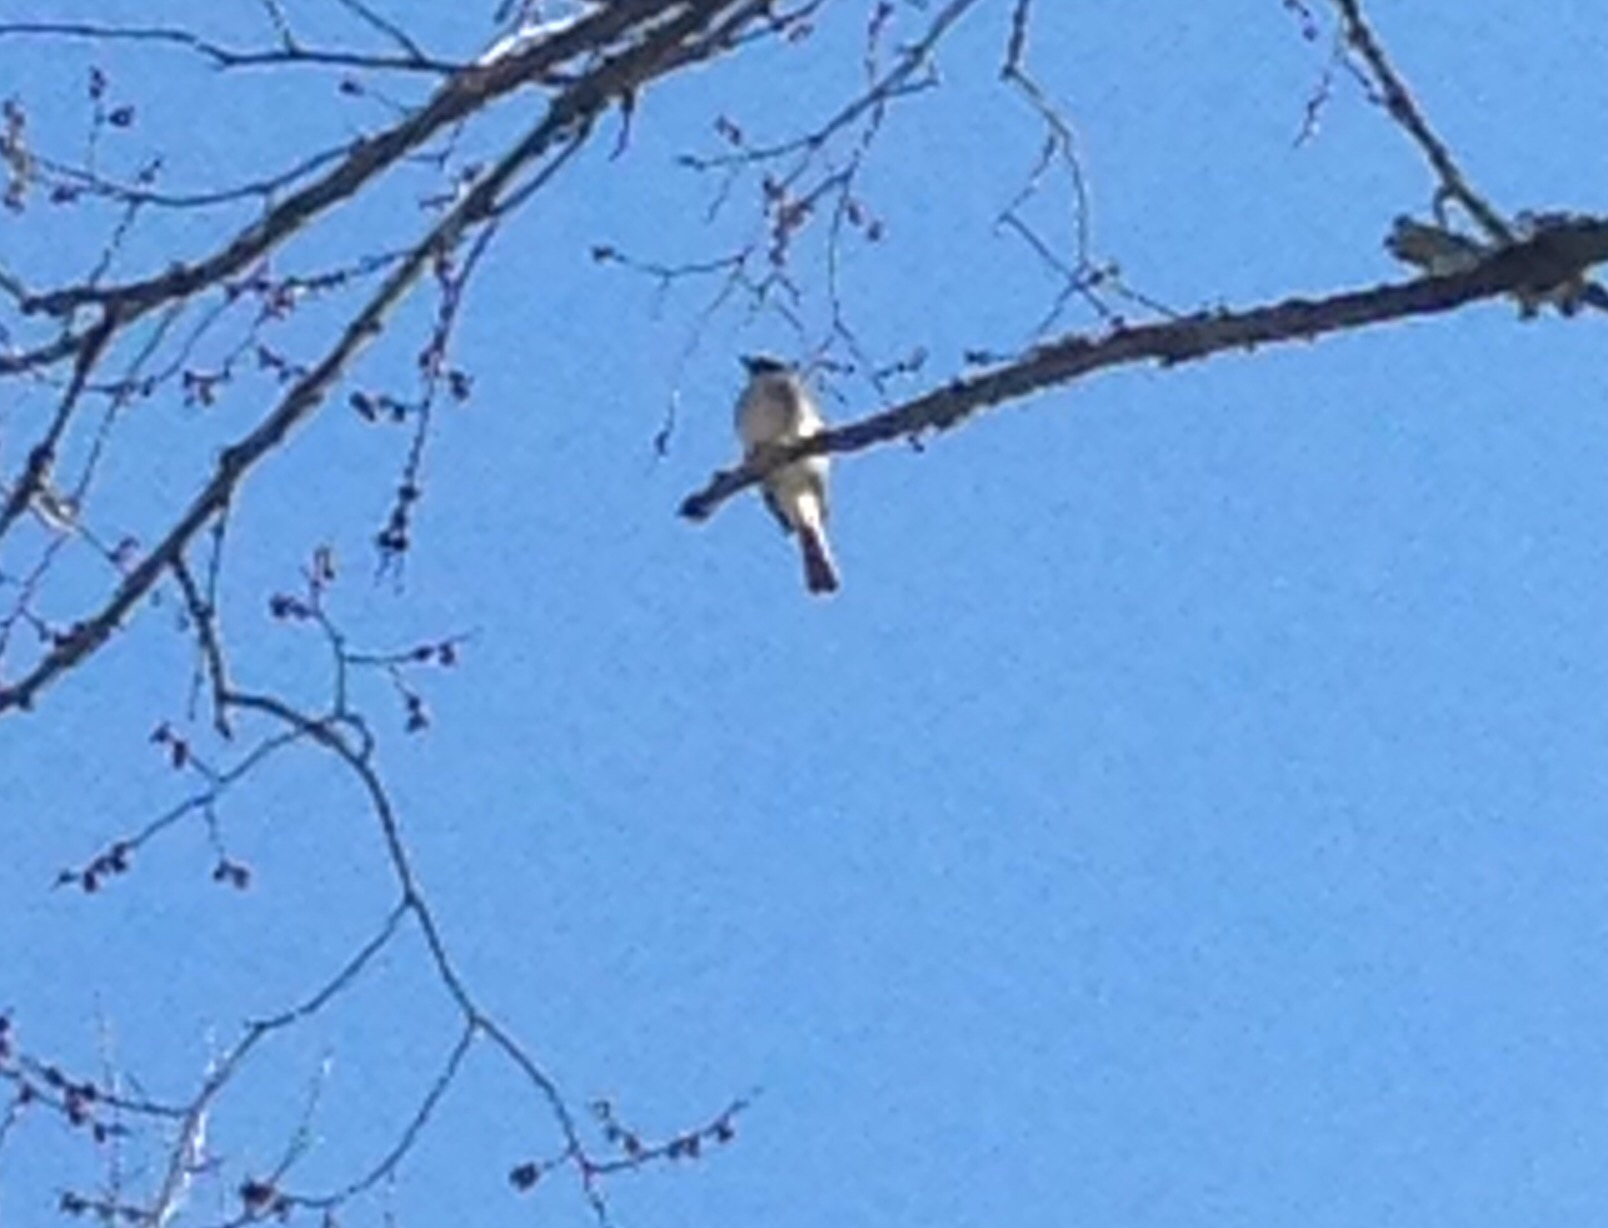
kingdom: Animalia
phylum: Chordata
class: Aves
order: Passeriformes
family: Tyrannidae
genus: Sayornis
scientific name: Sayornis phoebe
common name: Eastern phoebe
